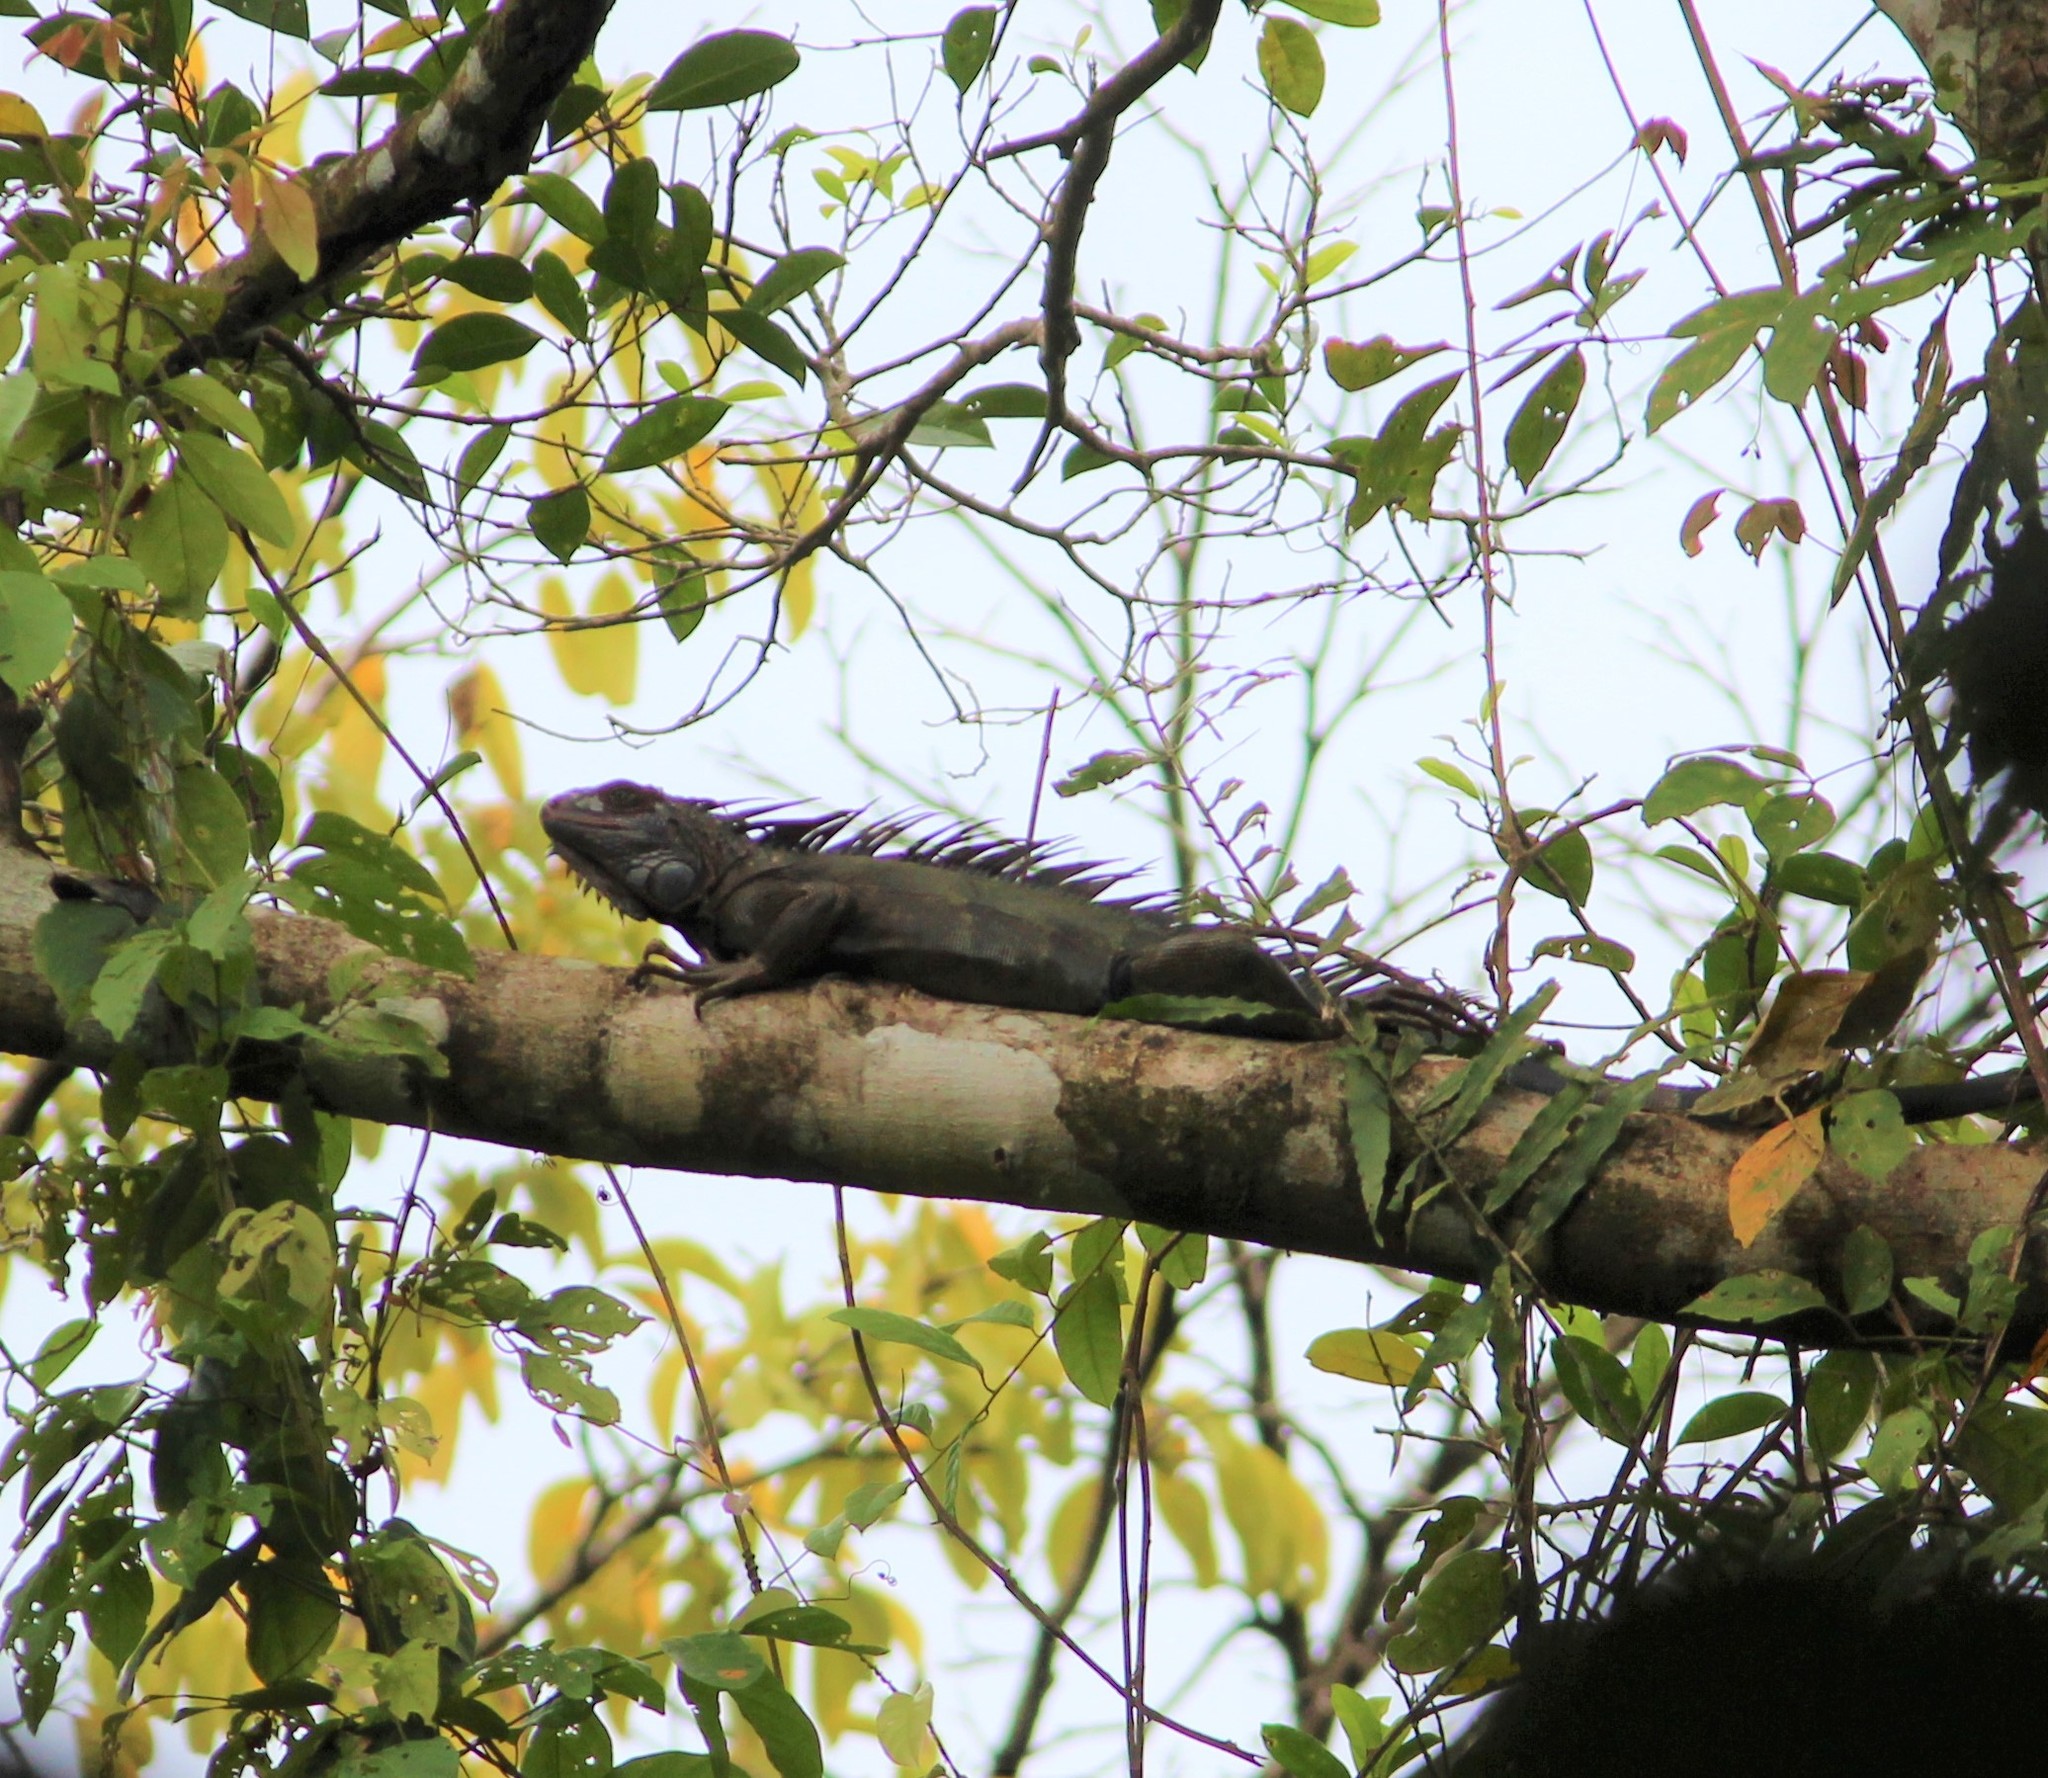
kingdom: Animalia
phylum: Chordata
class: Squamata
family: Iguanidae
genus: Iguana
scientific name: Iguana iguana
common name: Green iguana
